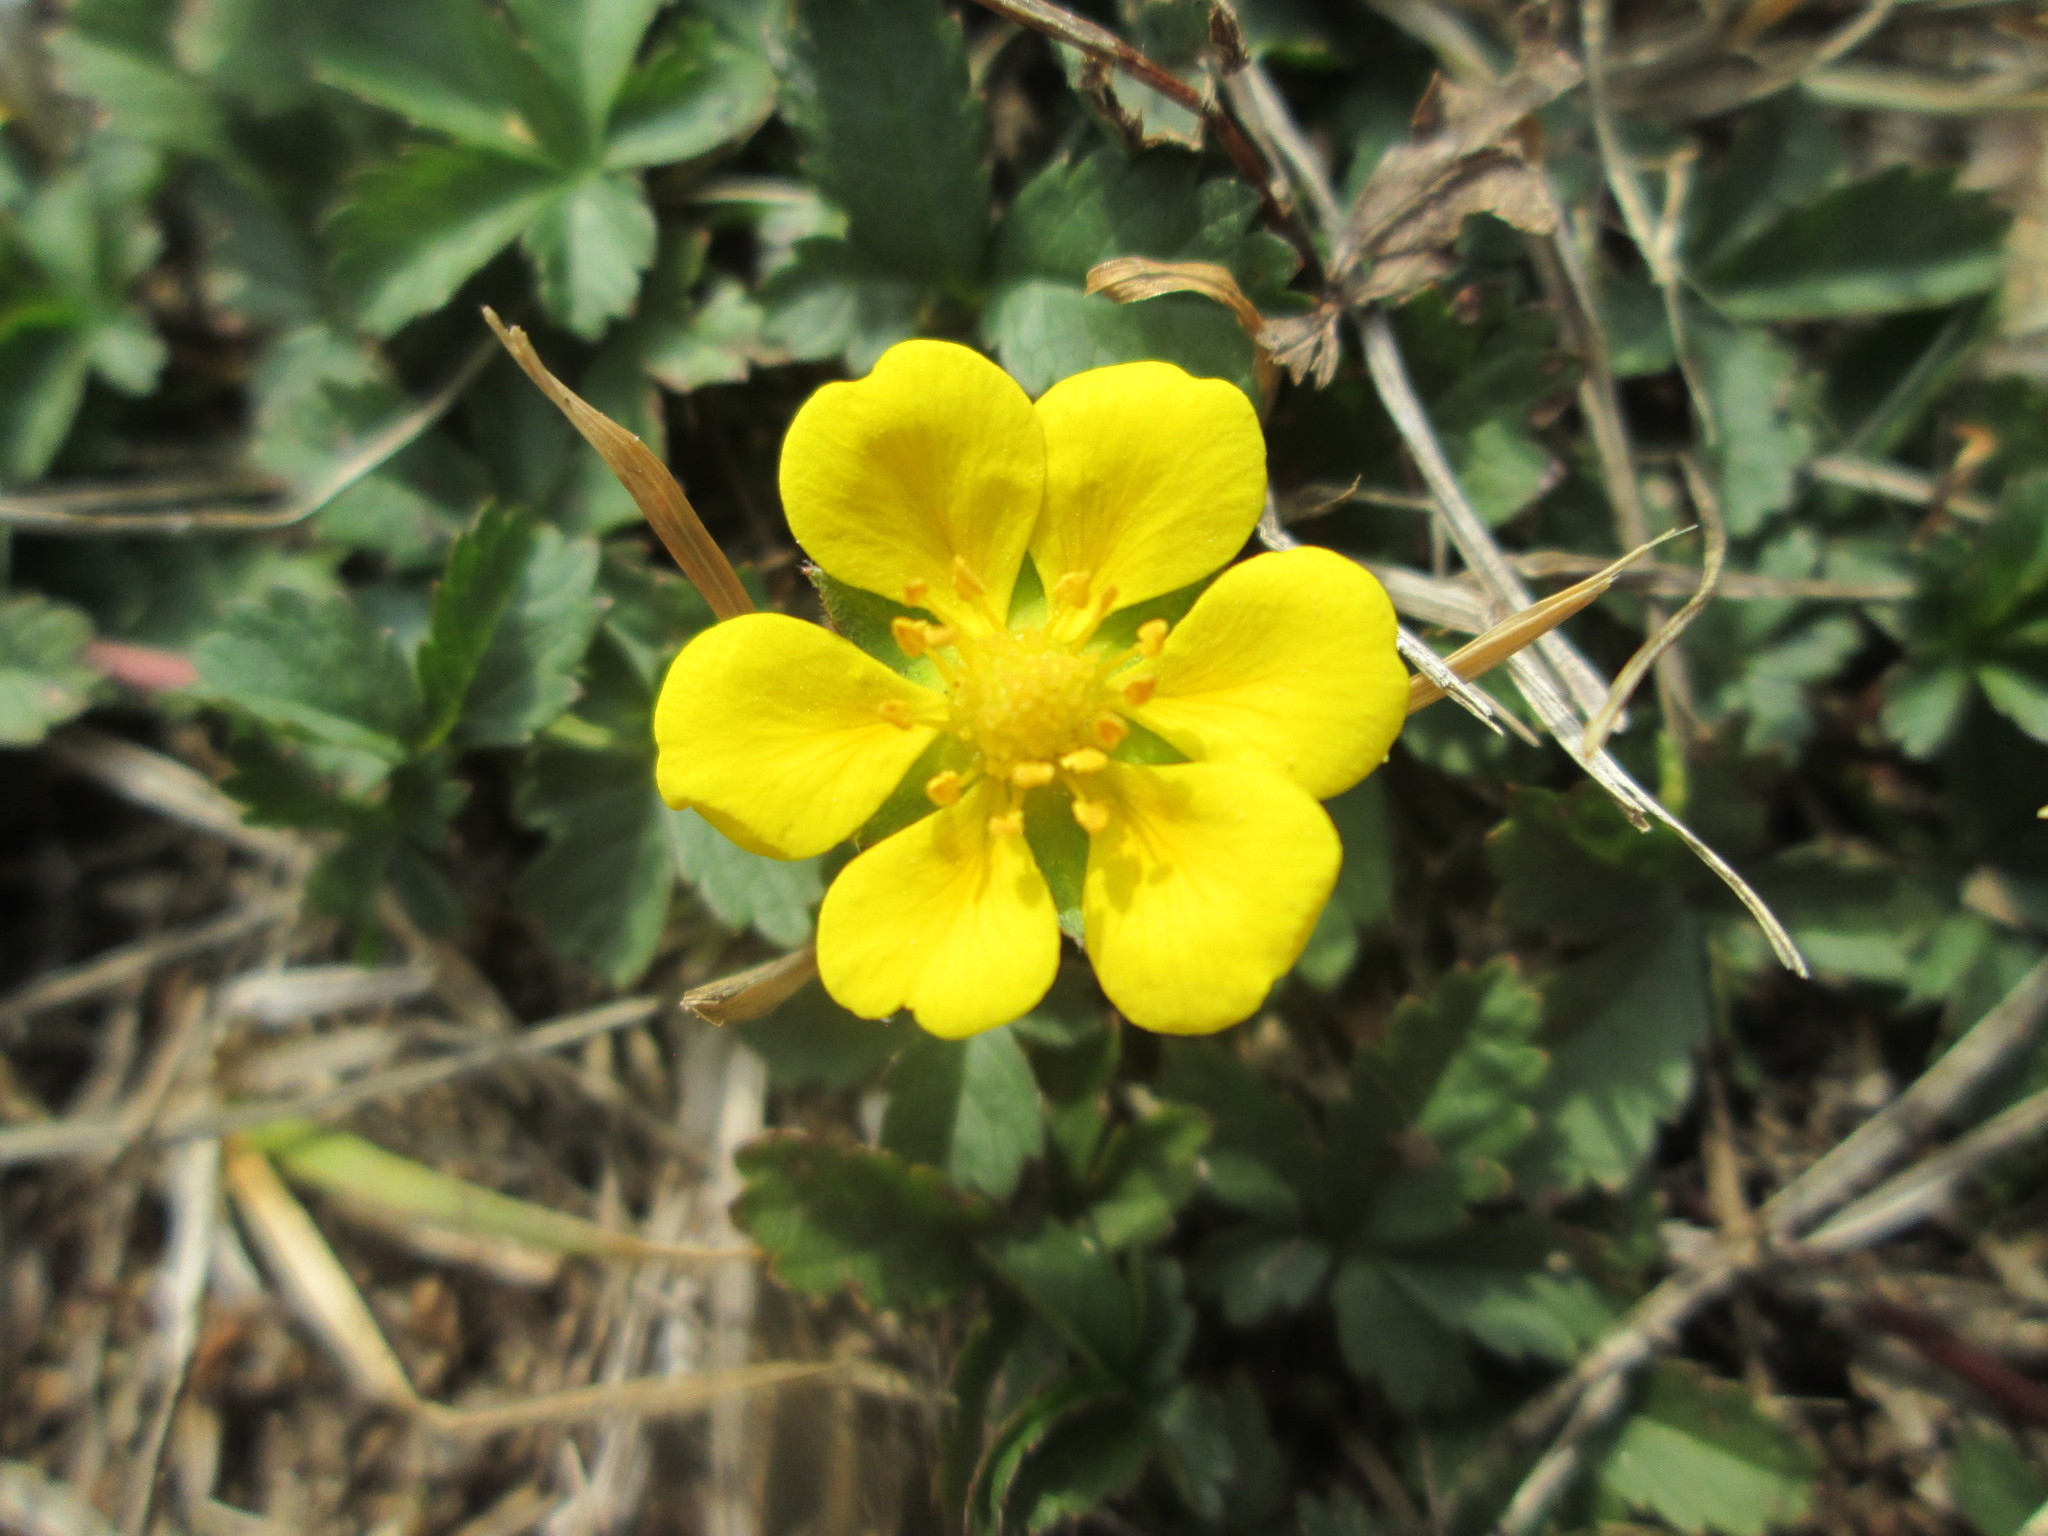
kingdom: Plantae
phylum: Tracheophyta
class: Magnoliopsida
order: Rosales
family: Rosaceae
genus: Potentilla
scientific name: Potentilla reptans
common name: Creeping cinquefoil
